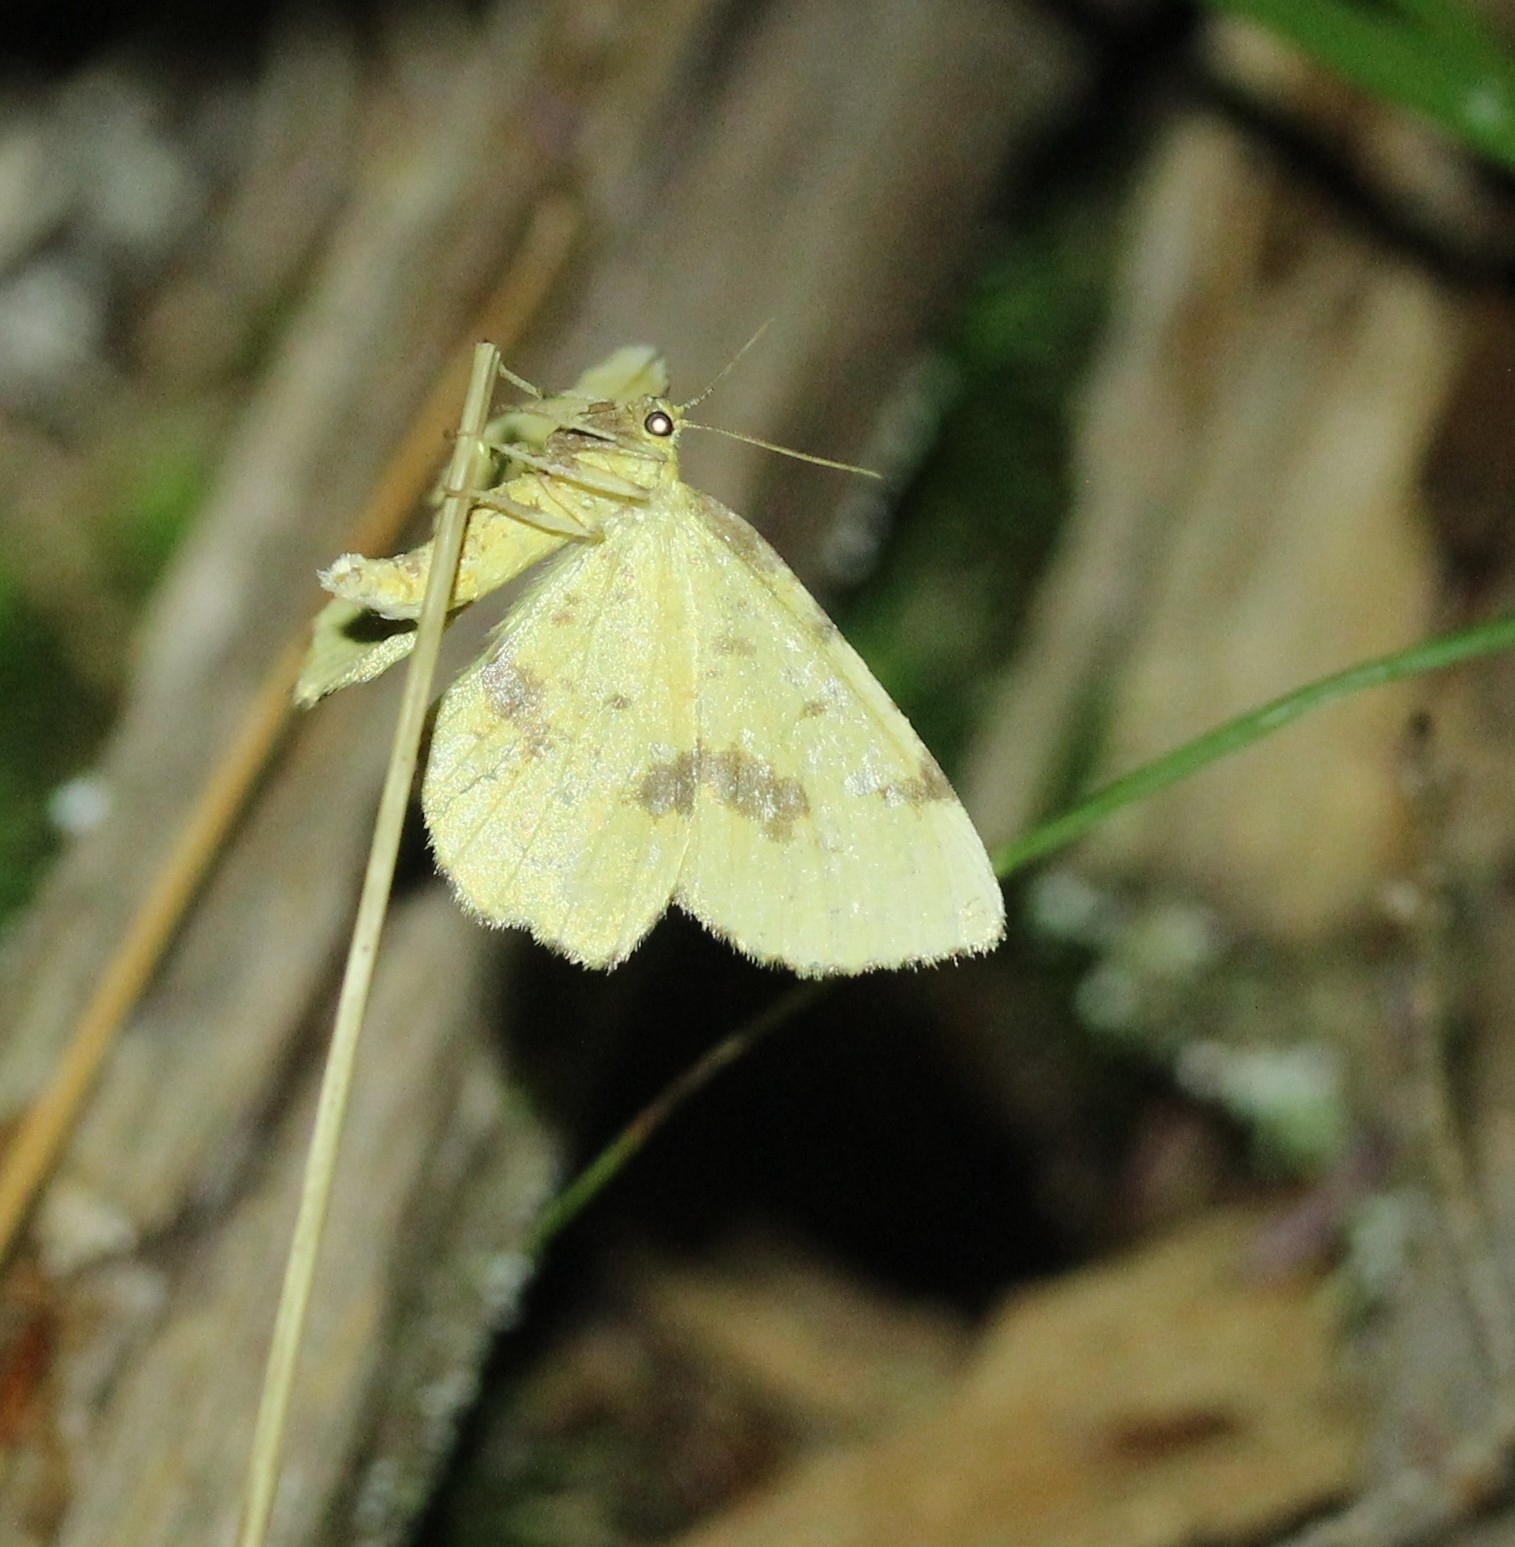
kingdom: Animalia
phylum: Arthropoda
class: Insecta
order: Lepidoptera
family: Geometridae
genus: Xanthotype
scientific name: Xanthotype
